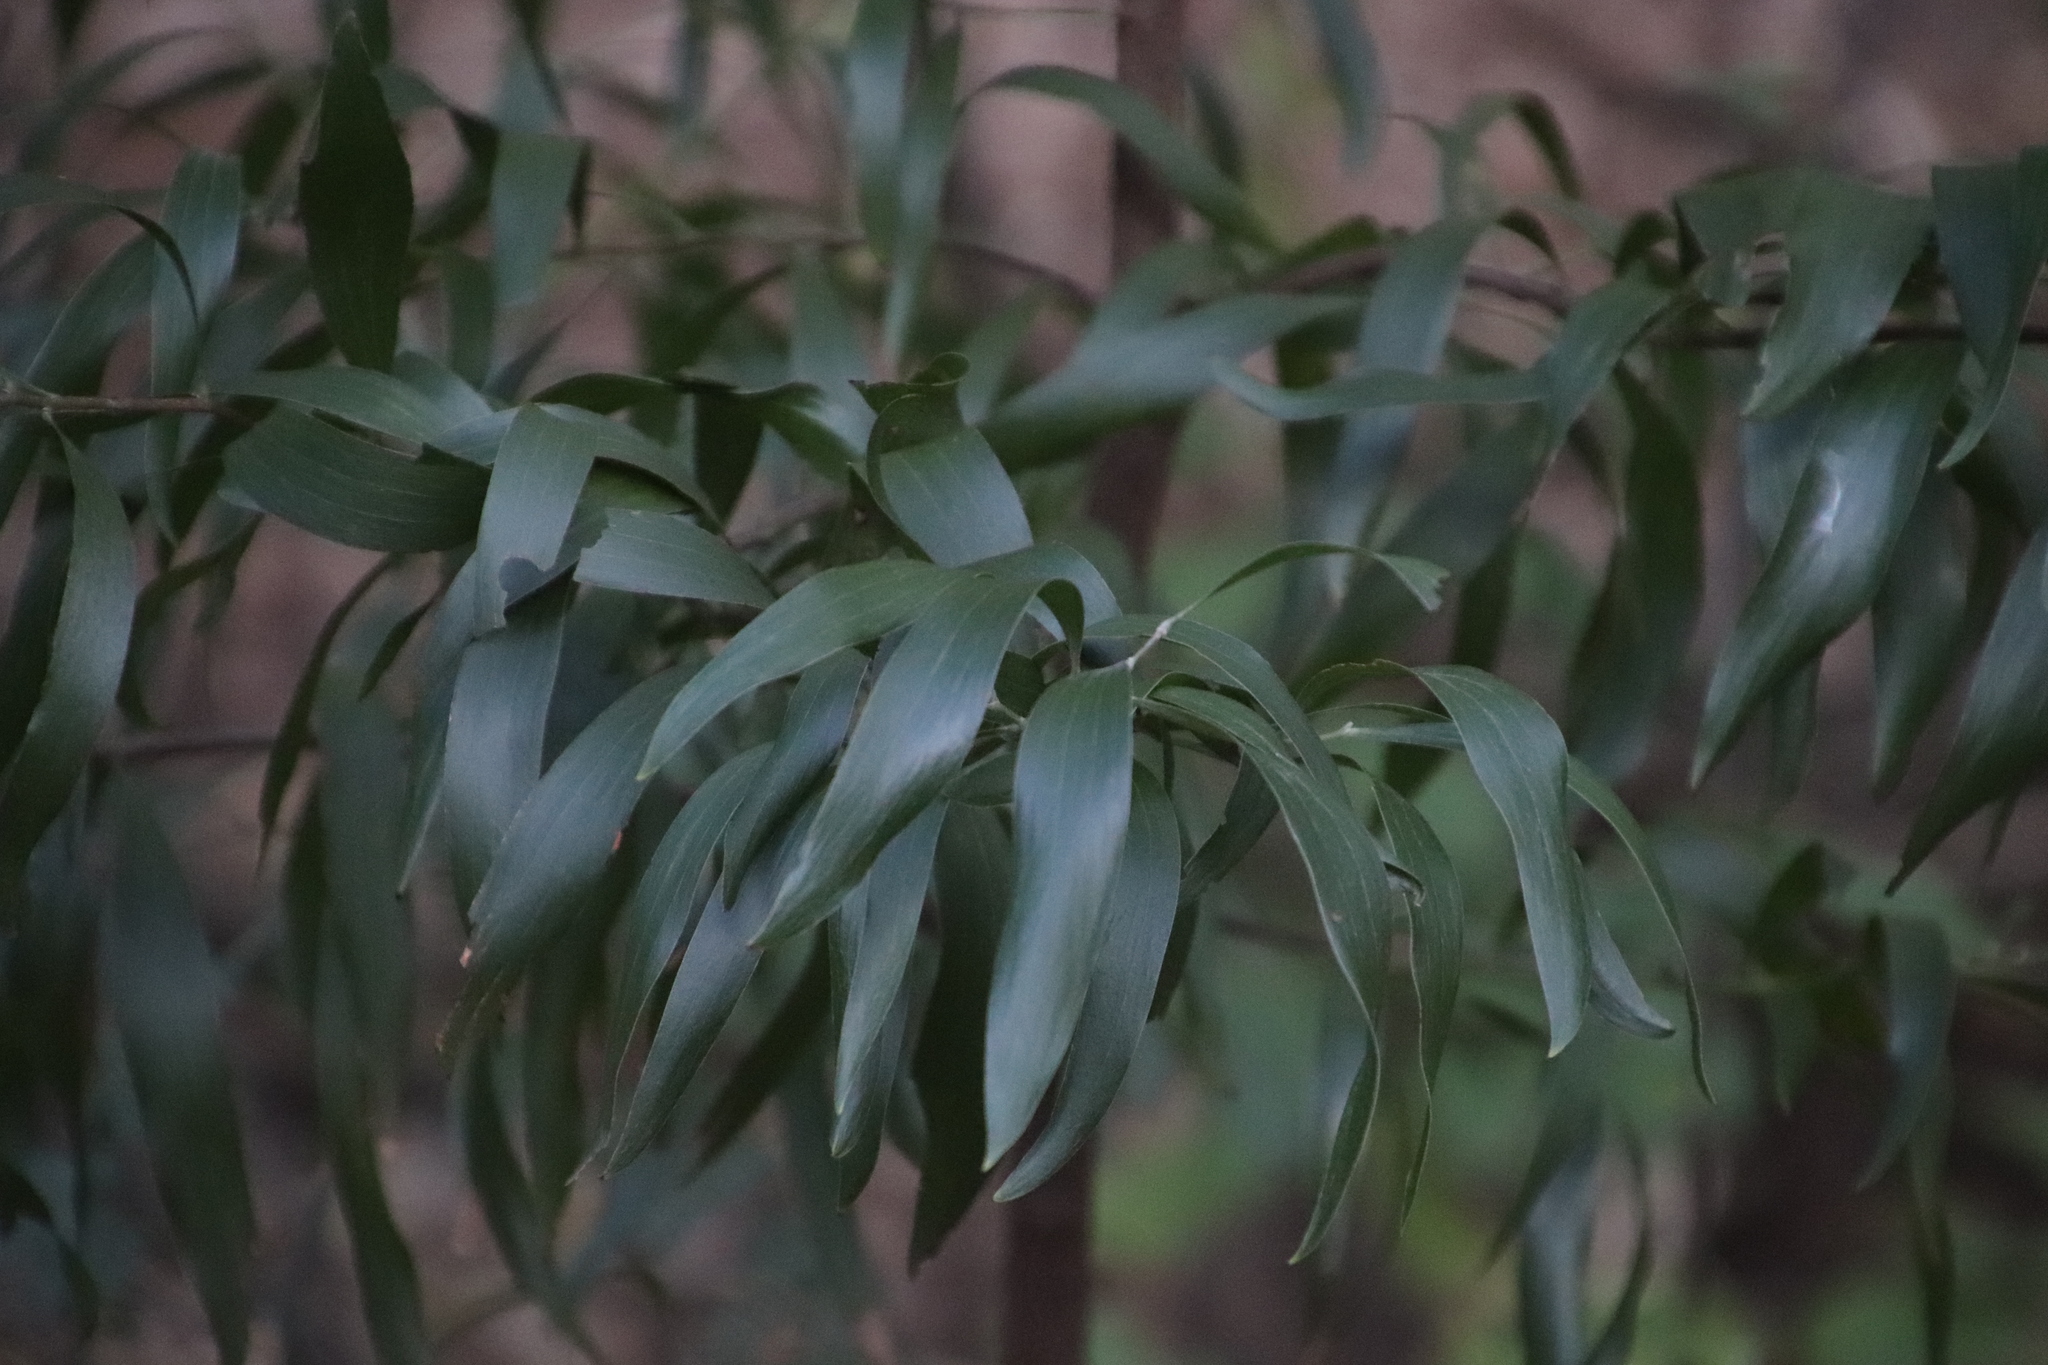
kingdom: Plantae
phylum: Tracheophyta
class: Magnoliopsida
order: Fabales
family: Fabaceae
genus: Acacia
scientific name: Acacia melanoxylon
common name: Blackwood
